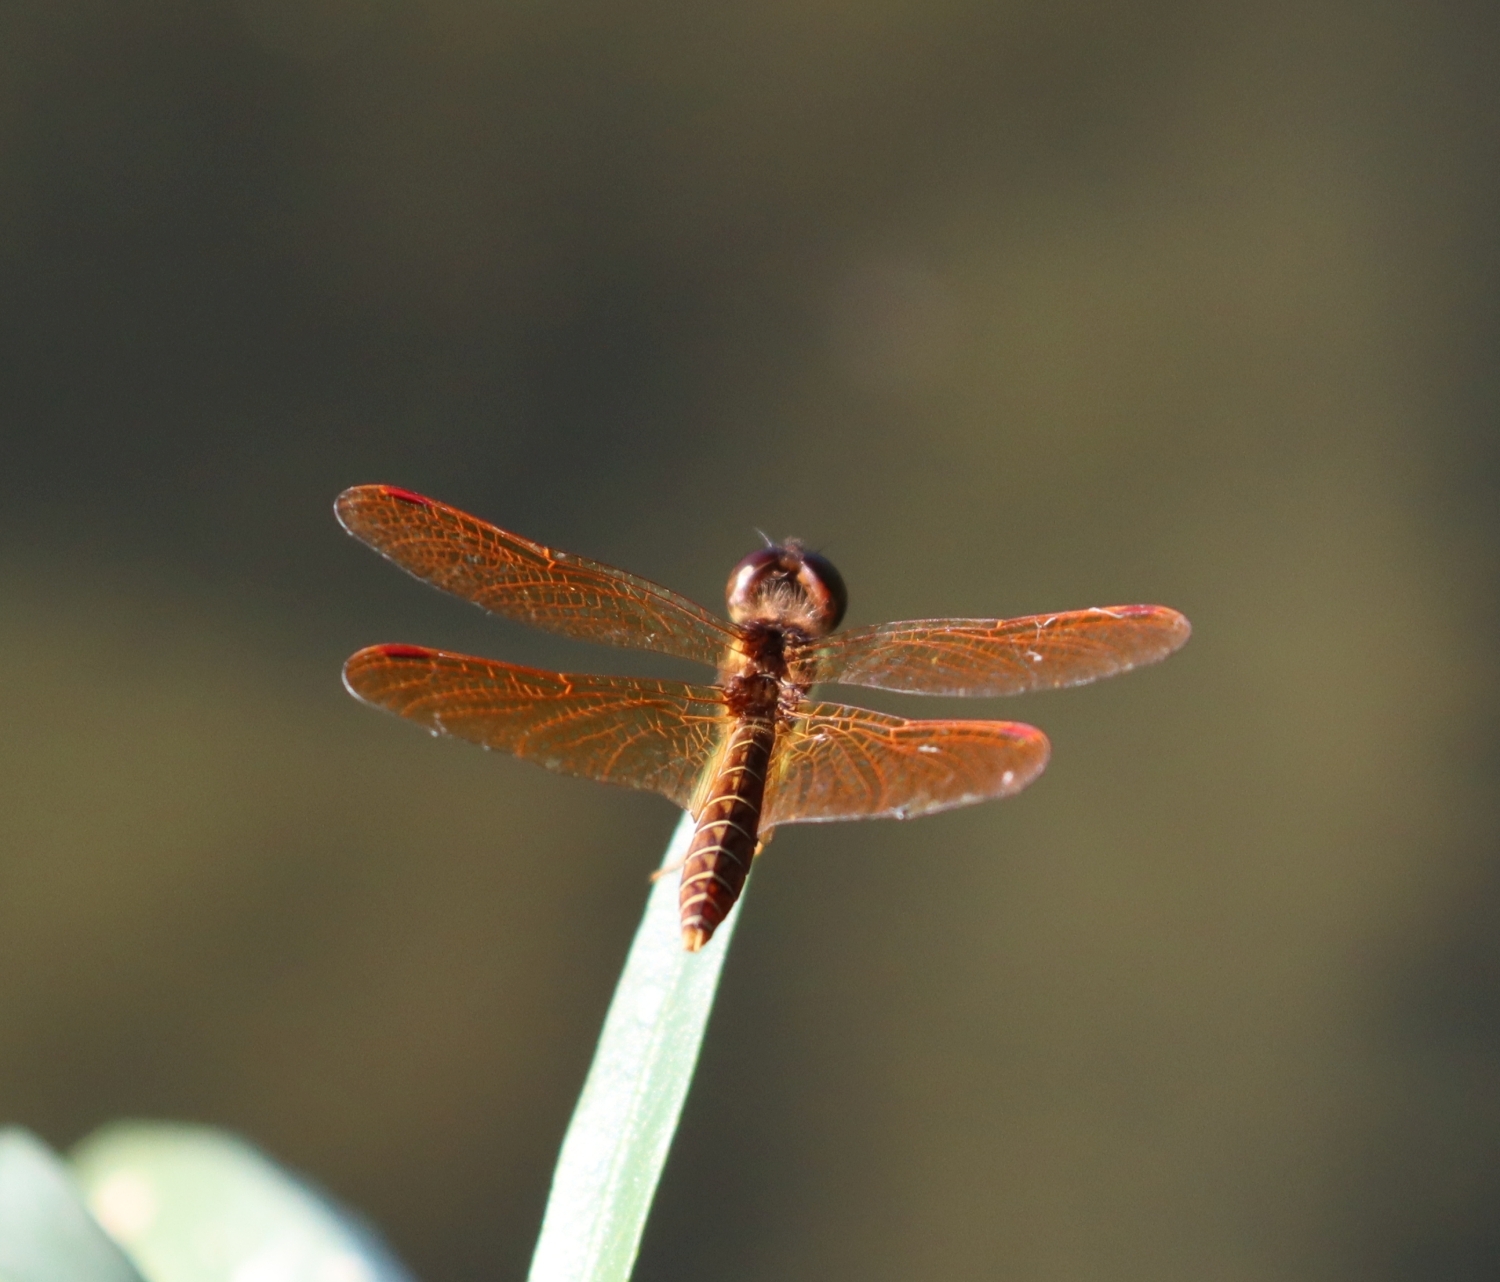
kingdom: Animalia
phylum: Arthropoda
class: Insecta
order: Odonata
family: Libellulidae
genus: Perithemis
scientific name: Perithemis tenera
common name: Eastern amberwing
